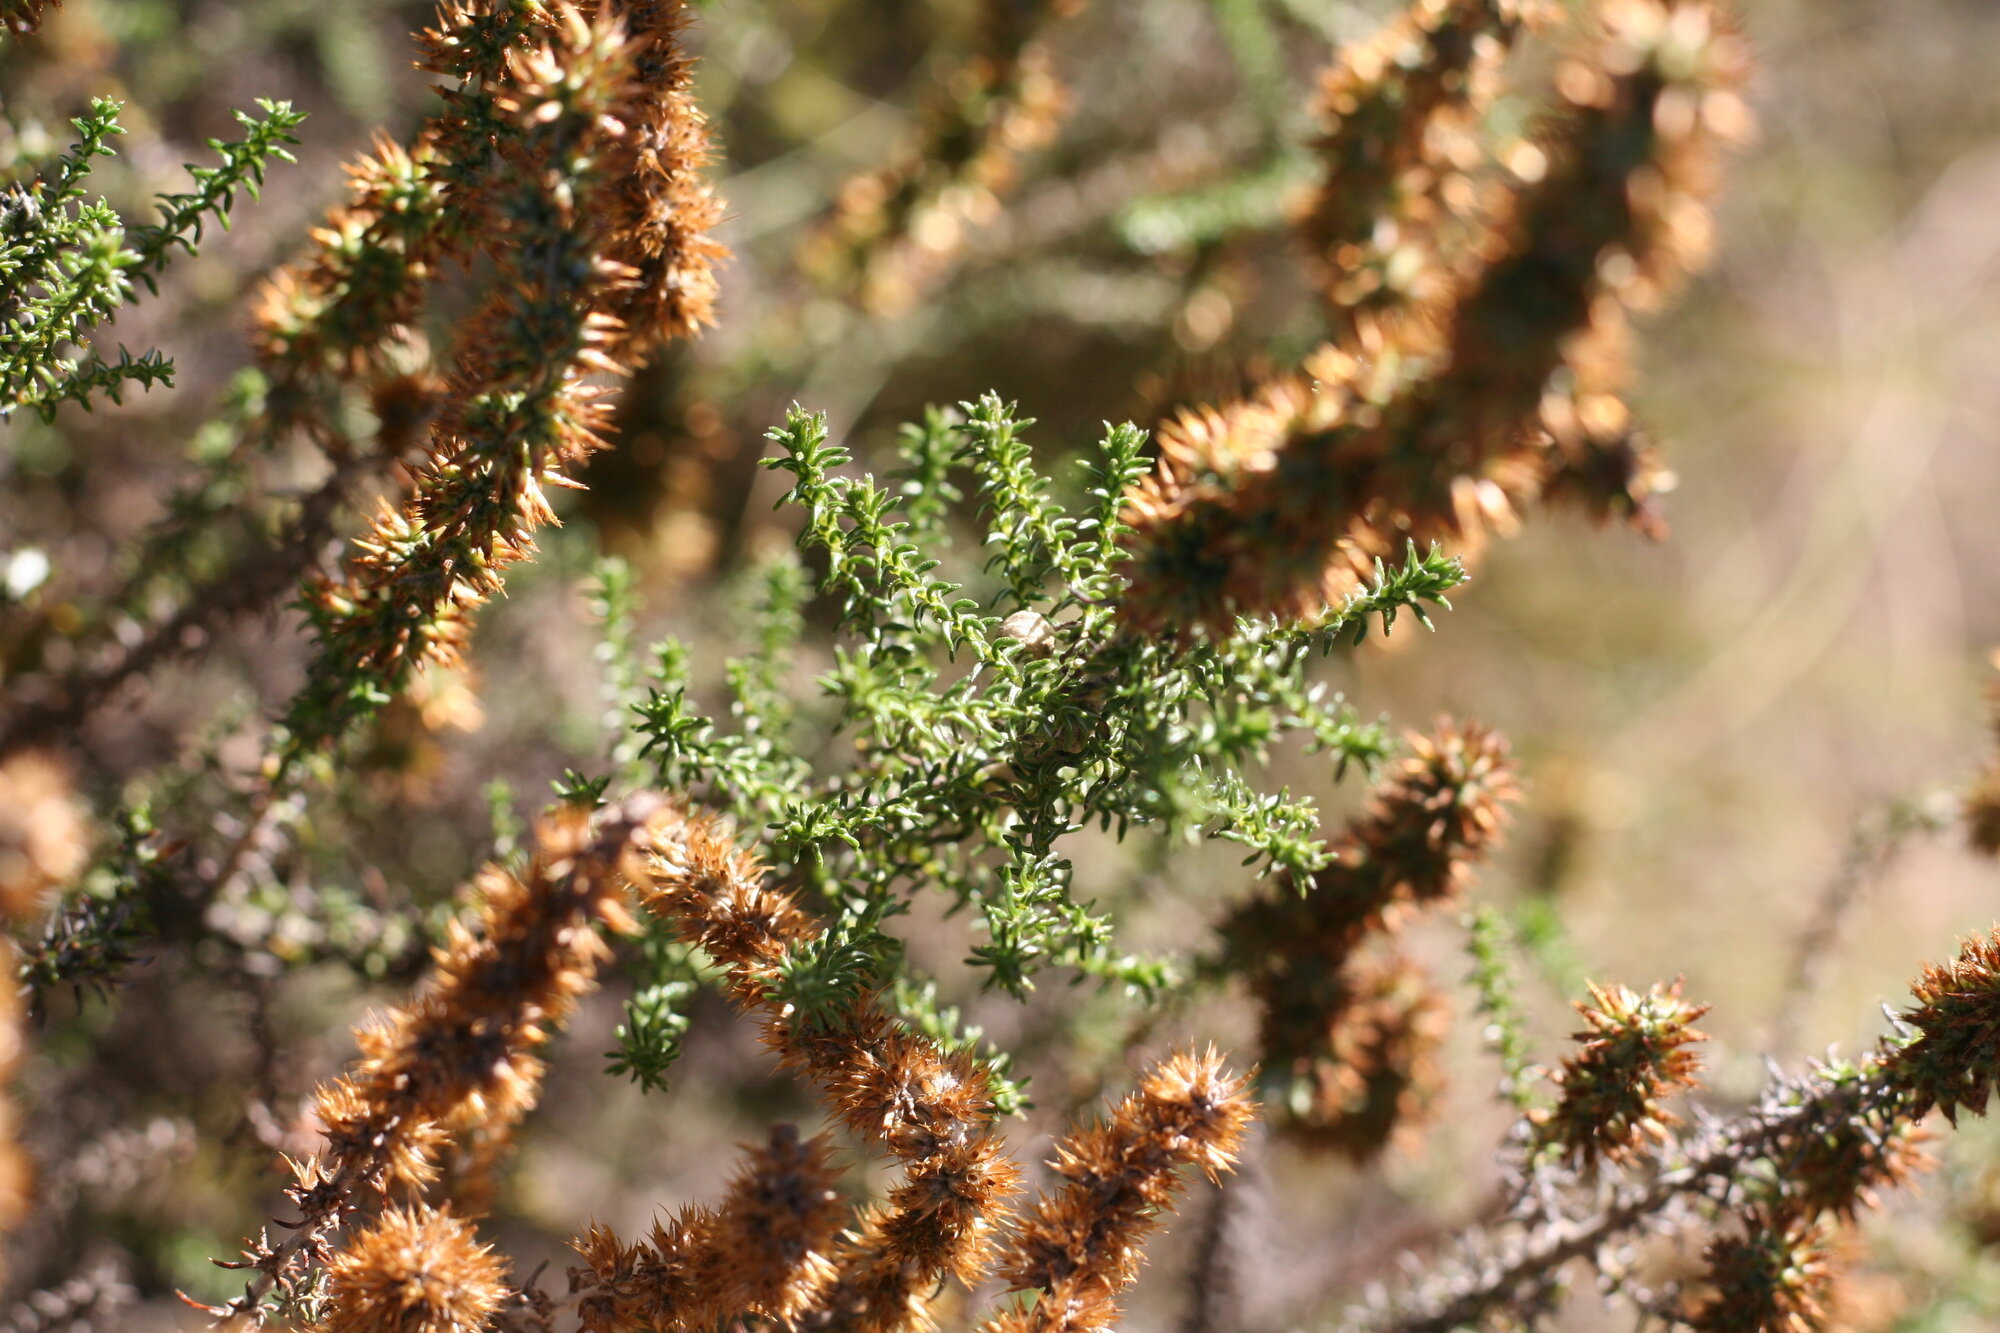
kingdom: Plantae
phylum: Tracheophyta
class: Magnoliopsida
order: Asterales
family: Asteraceae
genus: Seriphium
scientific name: Seriphium cinereum
